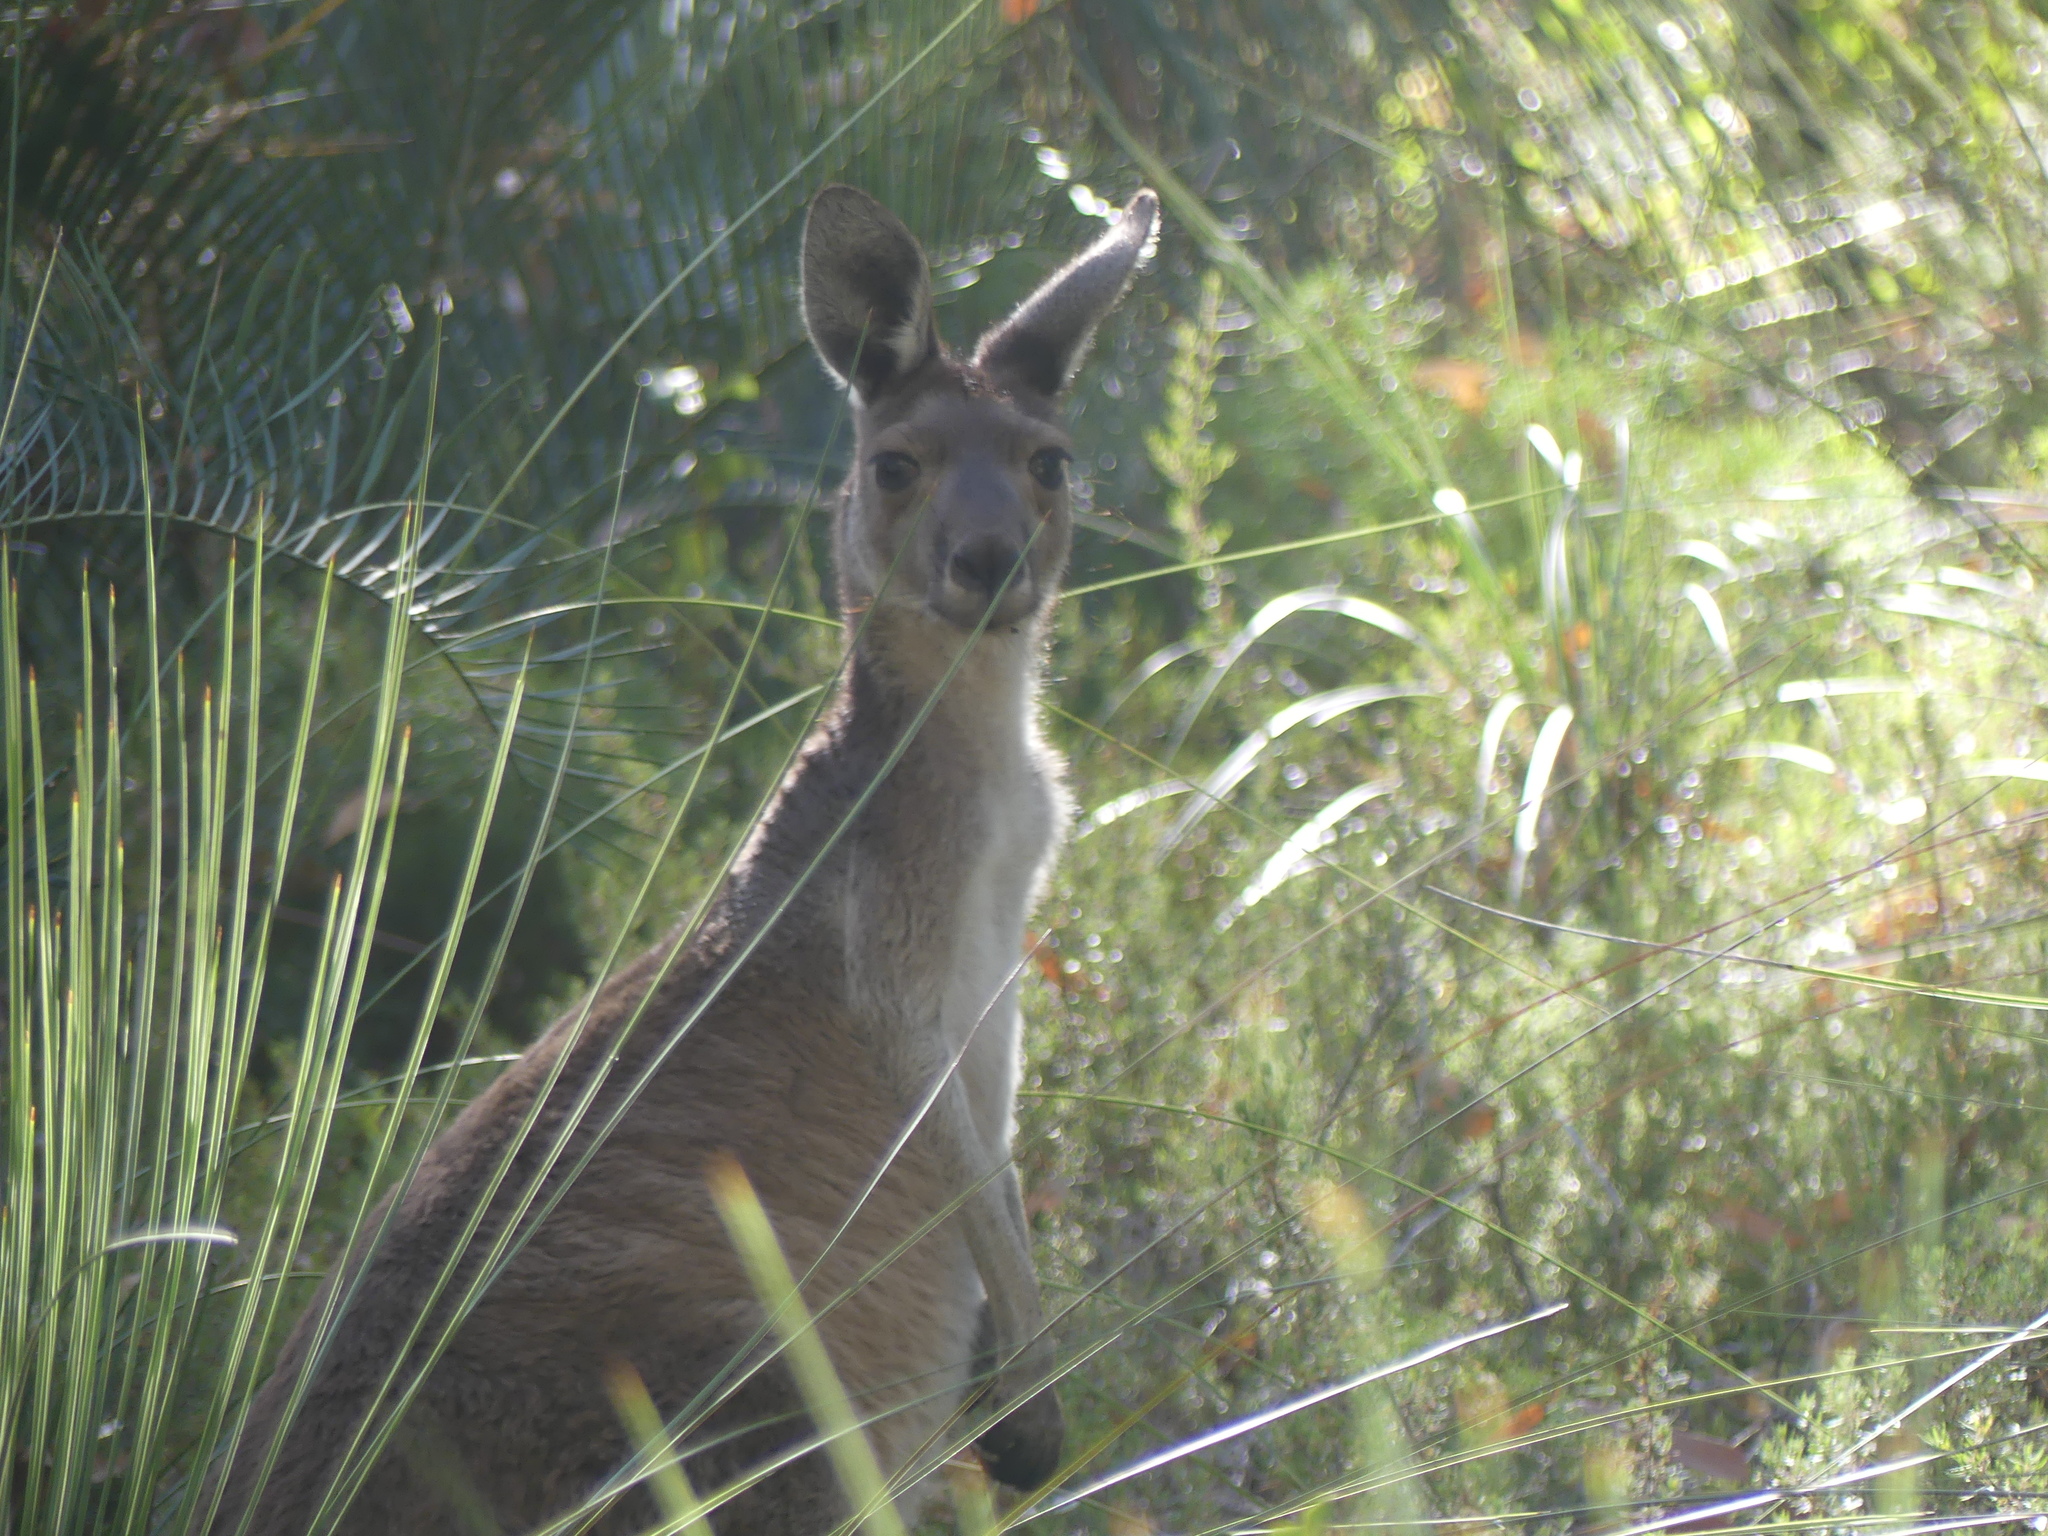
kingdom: Animalia
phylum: Chordata
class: Mammalia
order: Diprotodontia
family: Macropodidae
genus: Macropus
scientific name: Macropus fuliginosus
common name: Western grey kangaroo
